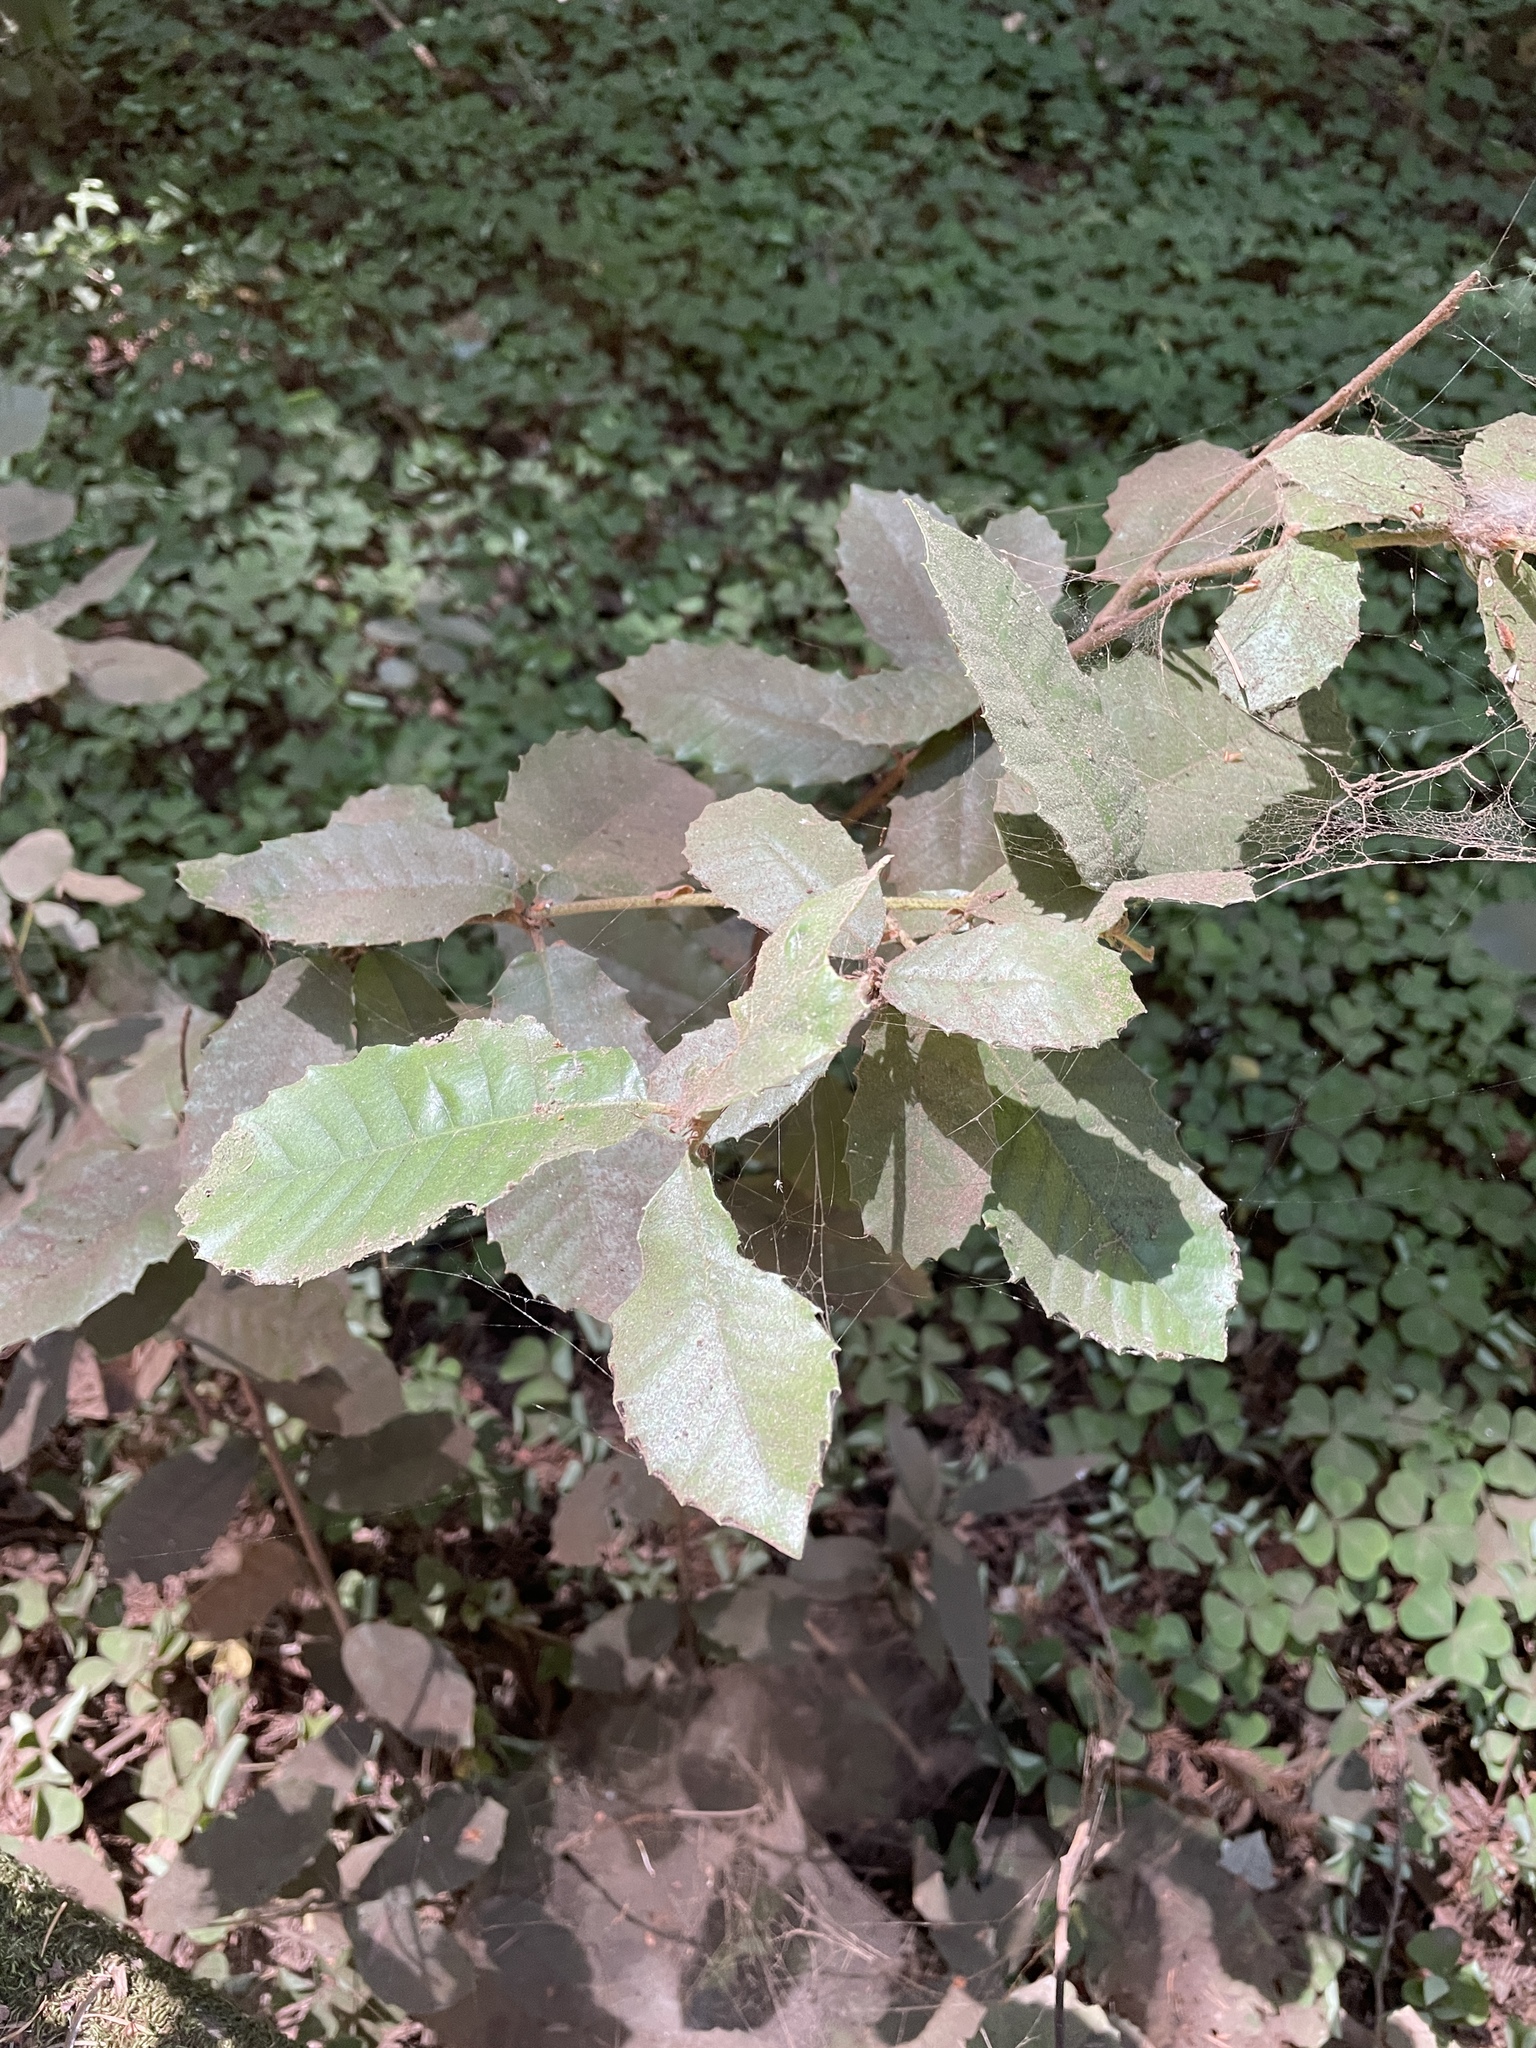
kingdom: Plantae
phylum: Tracheophyta
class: Magnoliopsida
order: Fagales
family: Fagaceae
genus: Notholithocarpus
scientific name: Notholithocarpus densiflorus
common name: Tan bark oak
